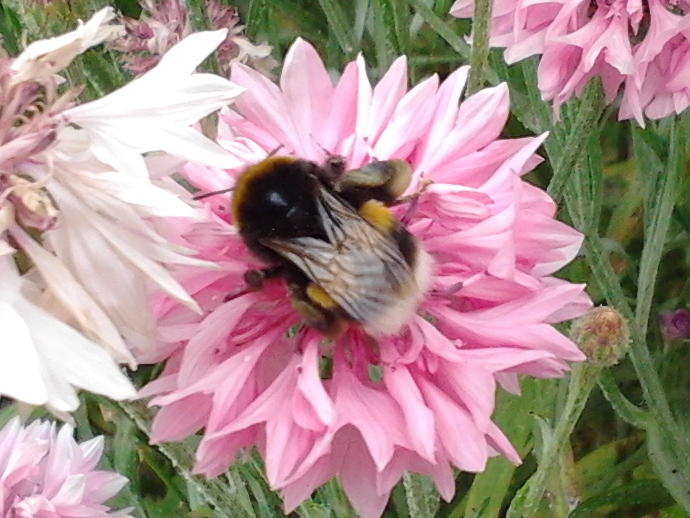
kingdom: Animalia
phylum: Arthropoda
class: Insecta
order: Hymenoptera
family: Apidae
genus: Bombus
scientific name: Bombus terrestris
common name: Buff-tailed bumblebee
